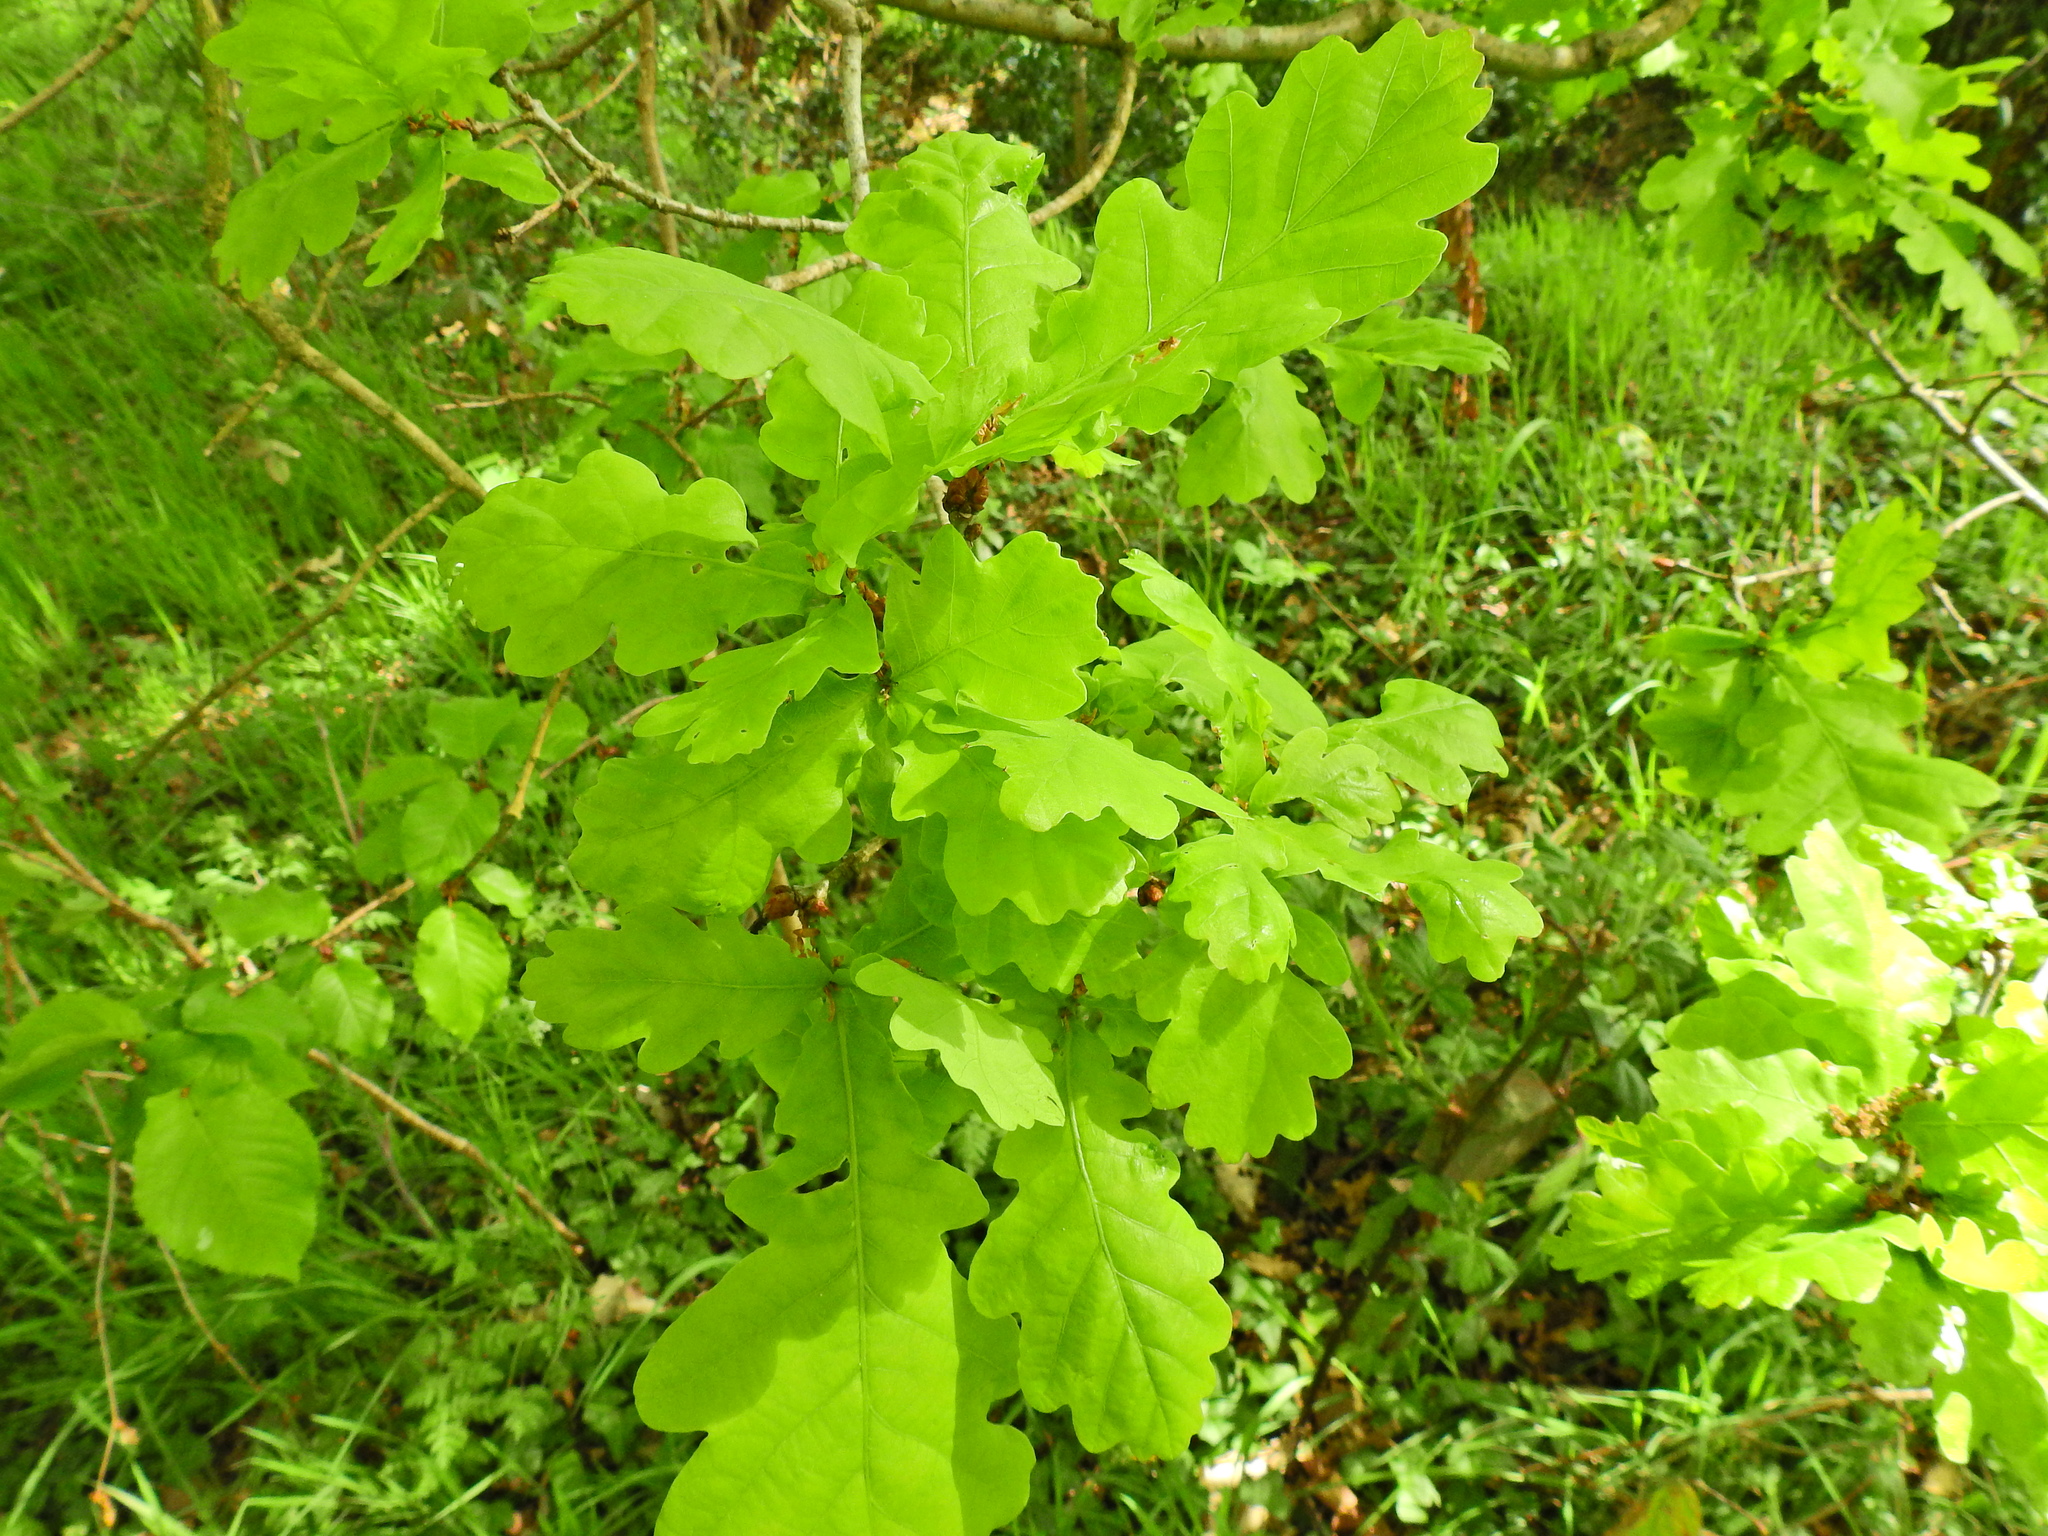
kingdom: Plantae
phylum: Tracheophyta
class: Magnoliopsida
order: Fagales
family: Fagaceae
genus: Quercus
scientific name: Quercus robur
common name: Pedunculate oak
